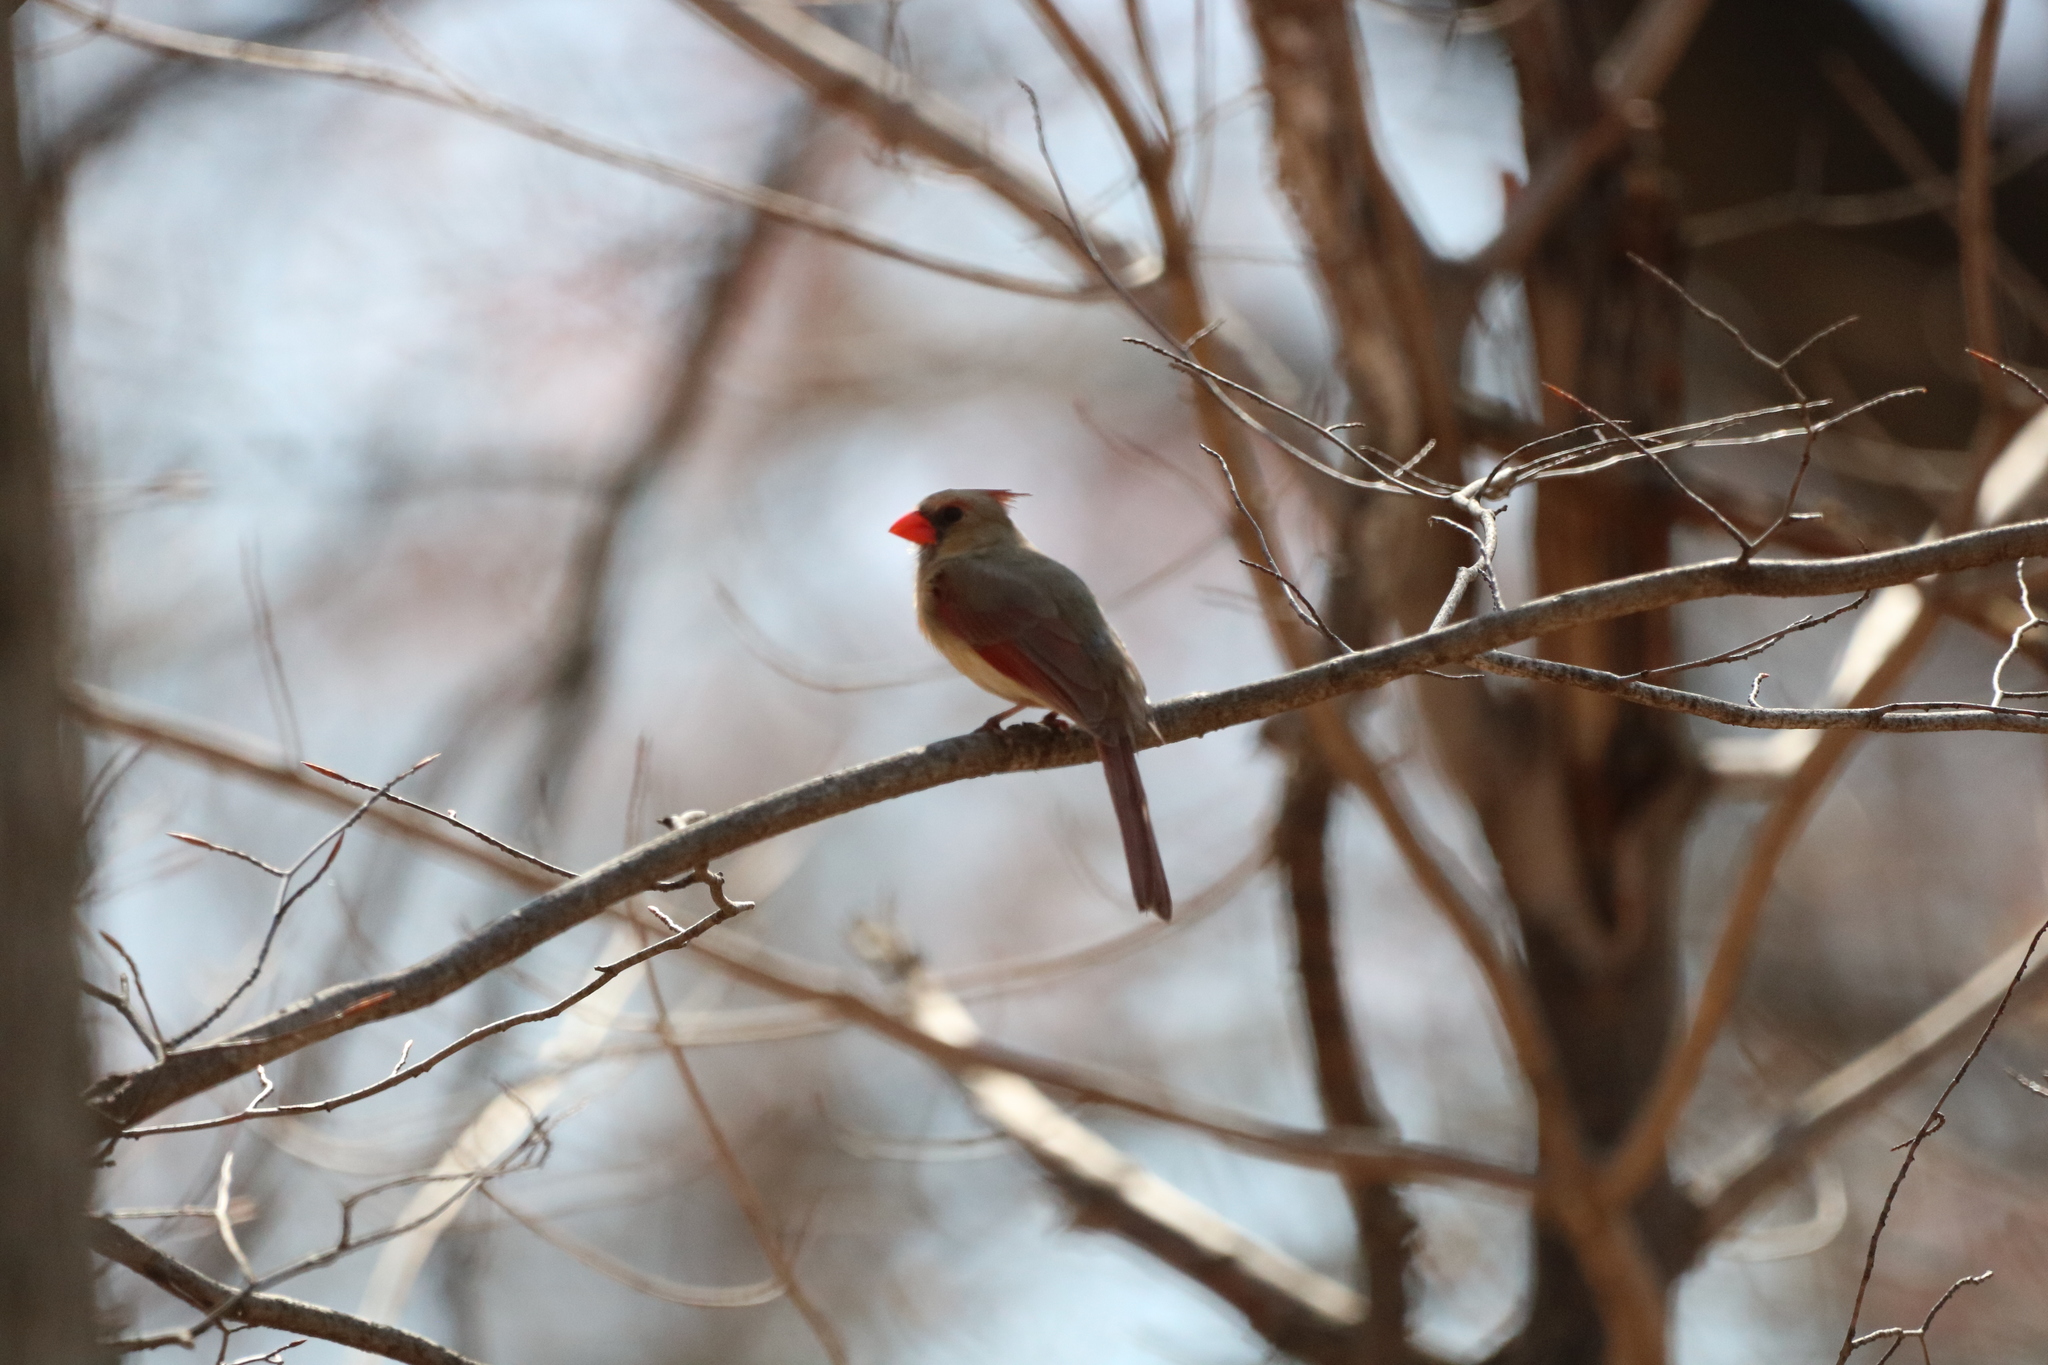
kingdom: Animalia
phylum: Chordata
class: Aves
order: Passeriformes
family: Cardinalidae
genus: Cardinalis
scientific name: Cardinalis cardinalis
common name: Northern cardinal
